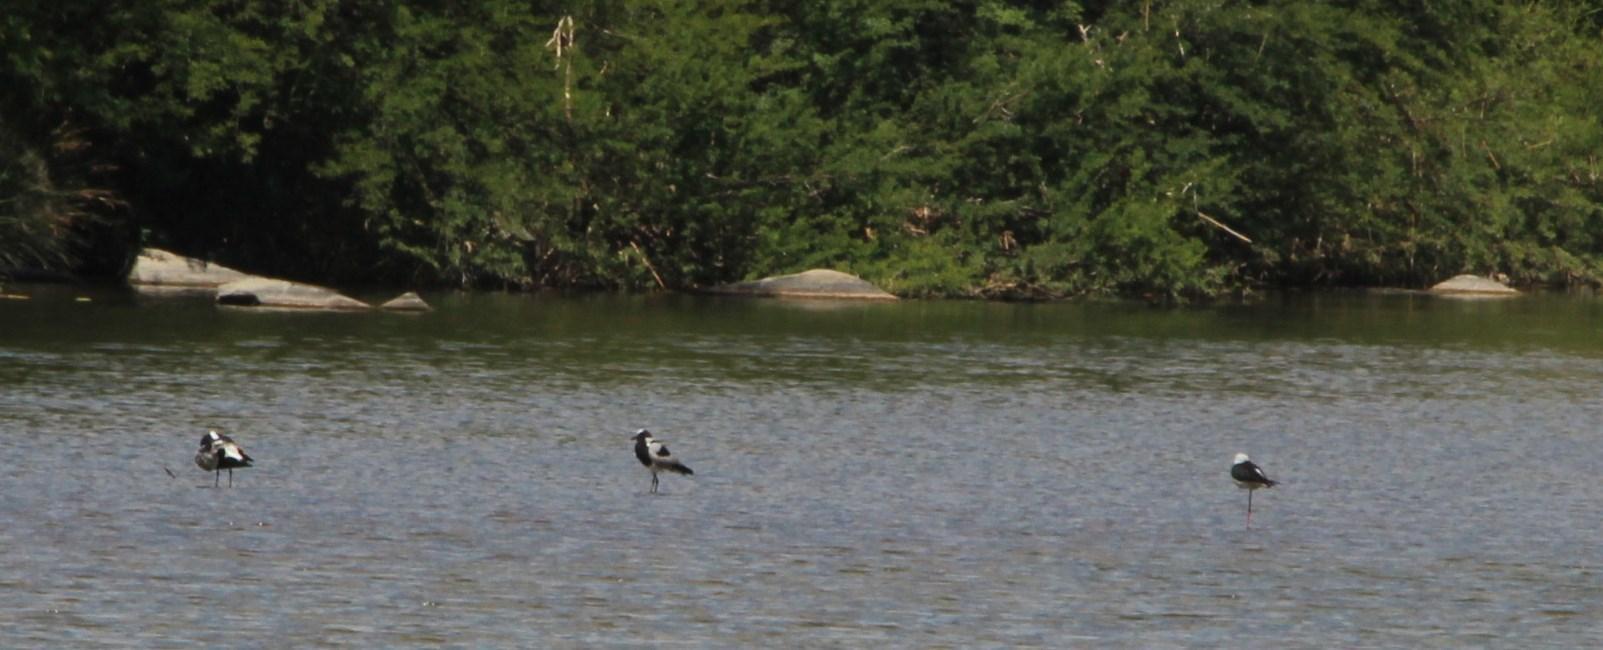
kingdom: Animalia
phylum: Chordata
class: Aves
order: Charadriiformes
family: Charadriidae
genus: Vanellus
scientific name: Vanellus armatus
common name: Blacksmith lapwing
